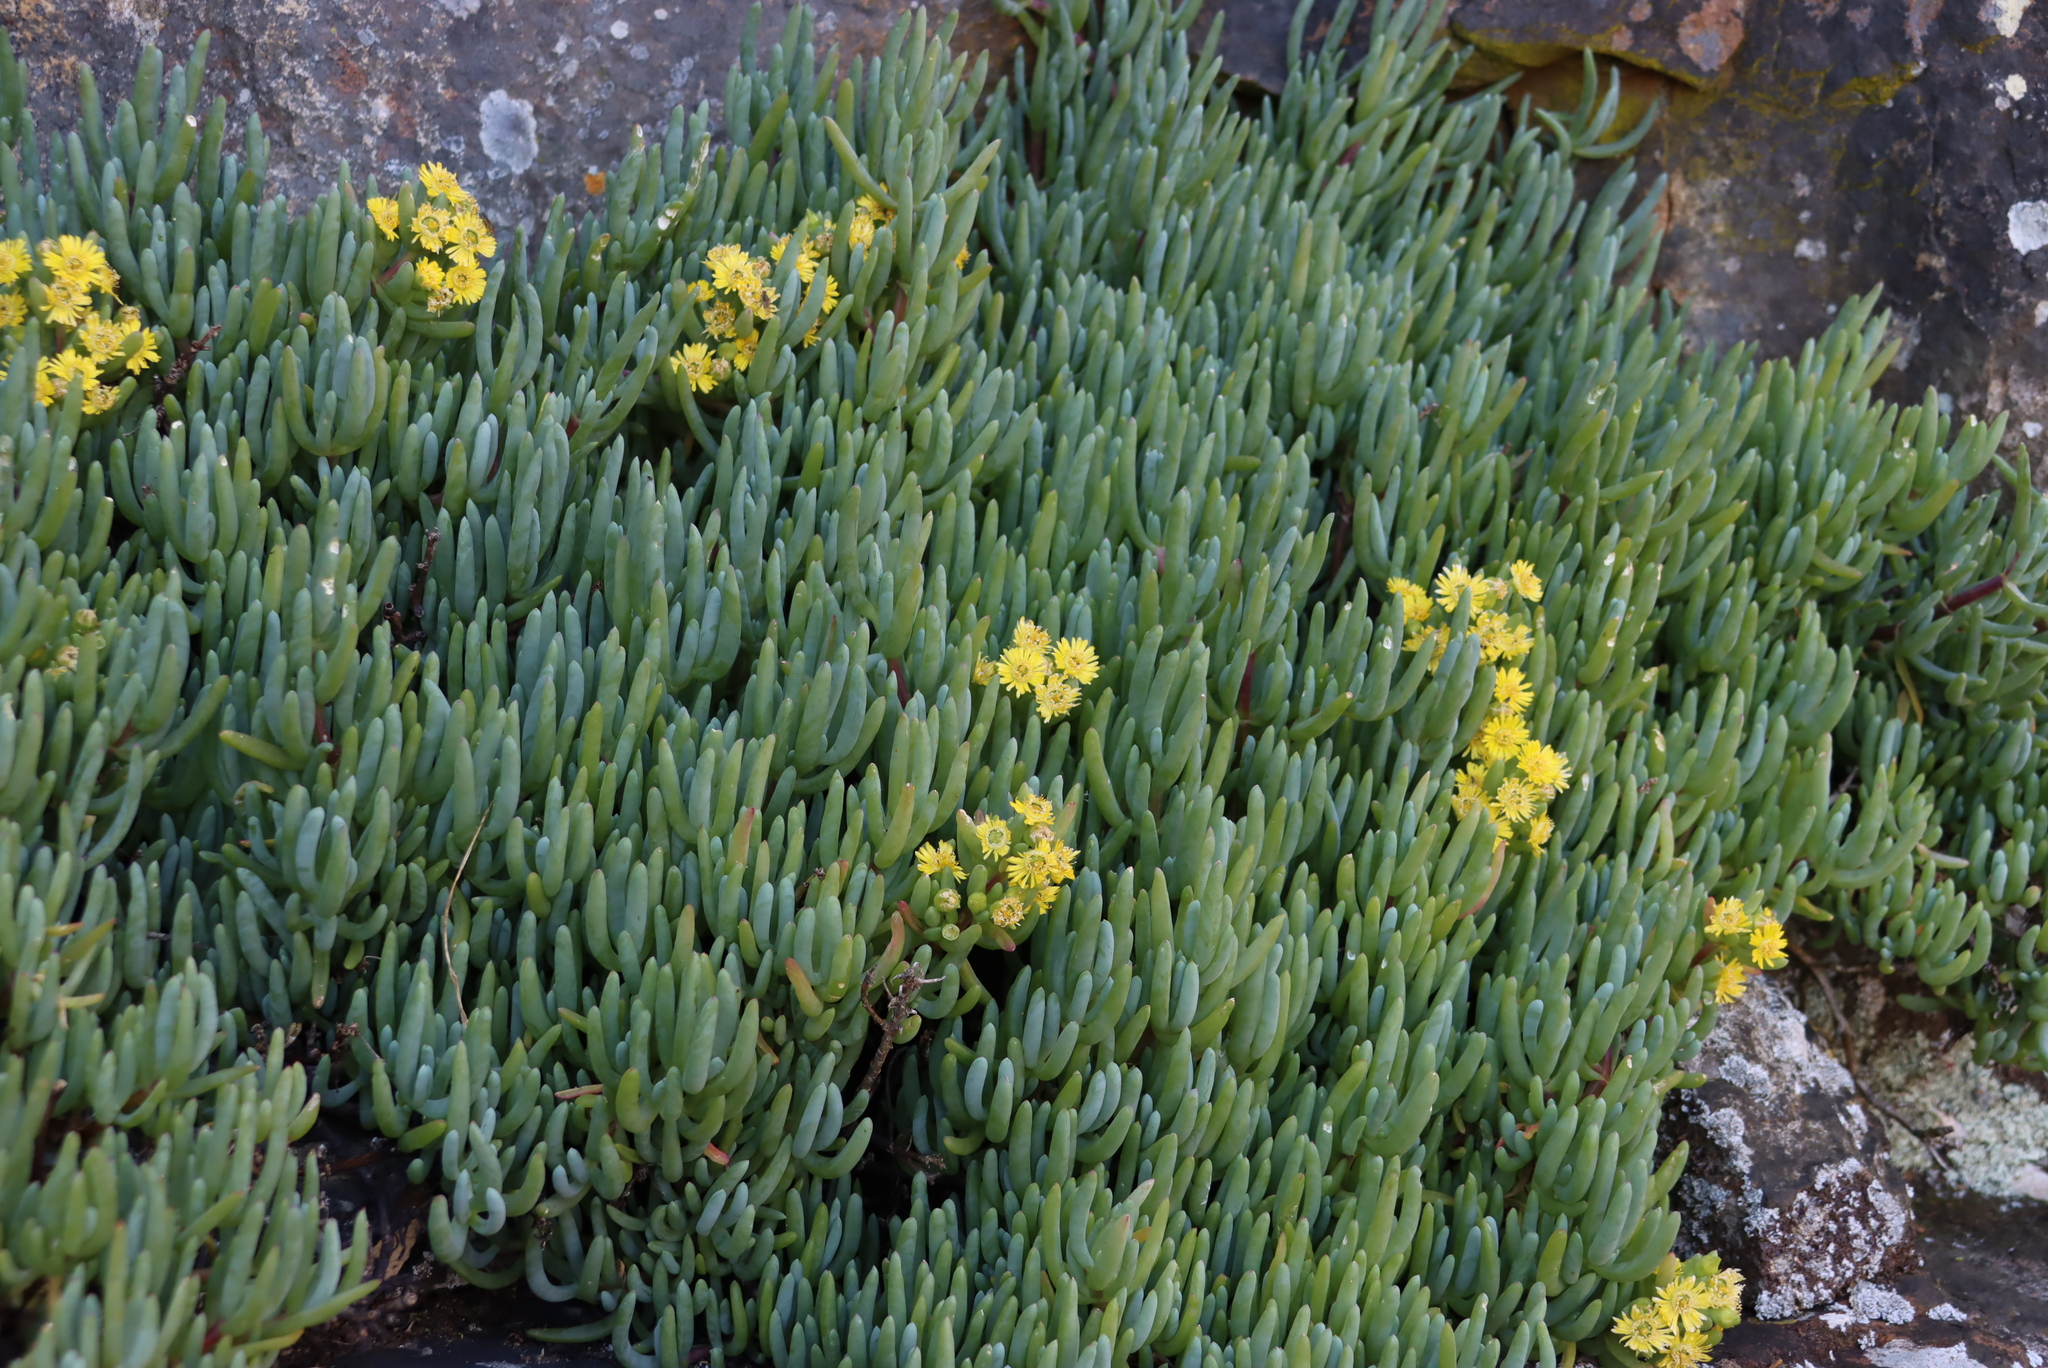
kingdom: Plantae
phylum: Tracheophyta
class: Magnoliopsida
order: Caryophyllales
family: Aizoaceae
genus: Scopelogena
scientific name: Scopelogena verruculata
